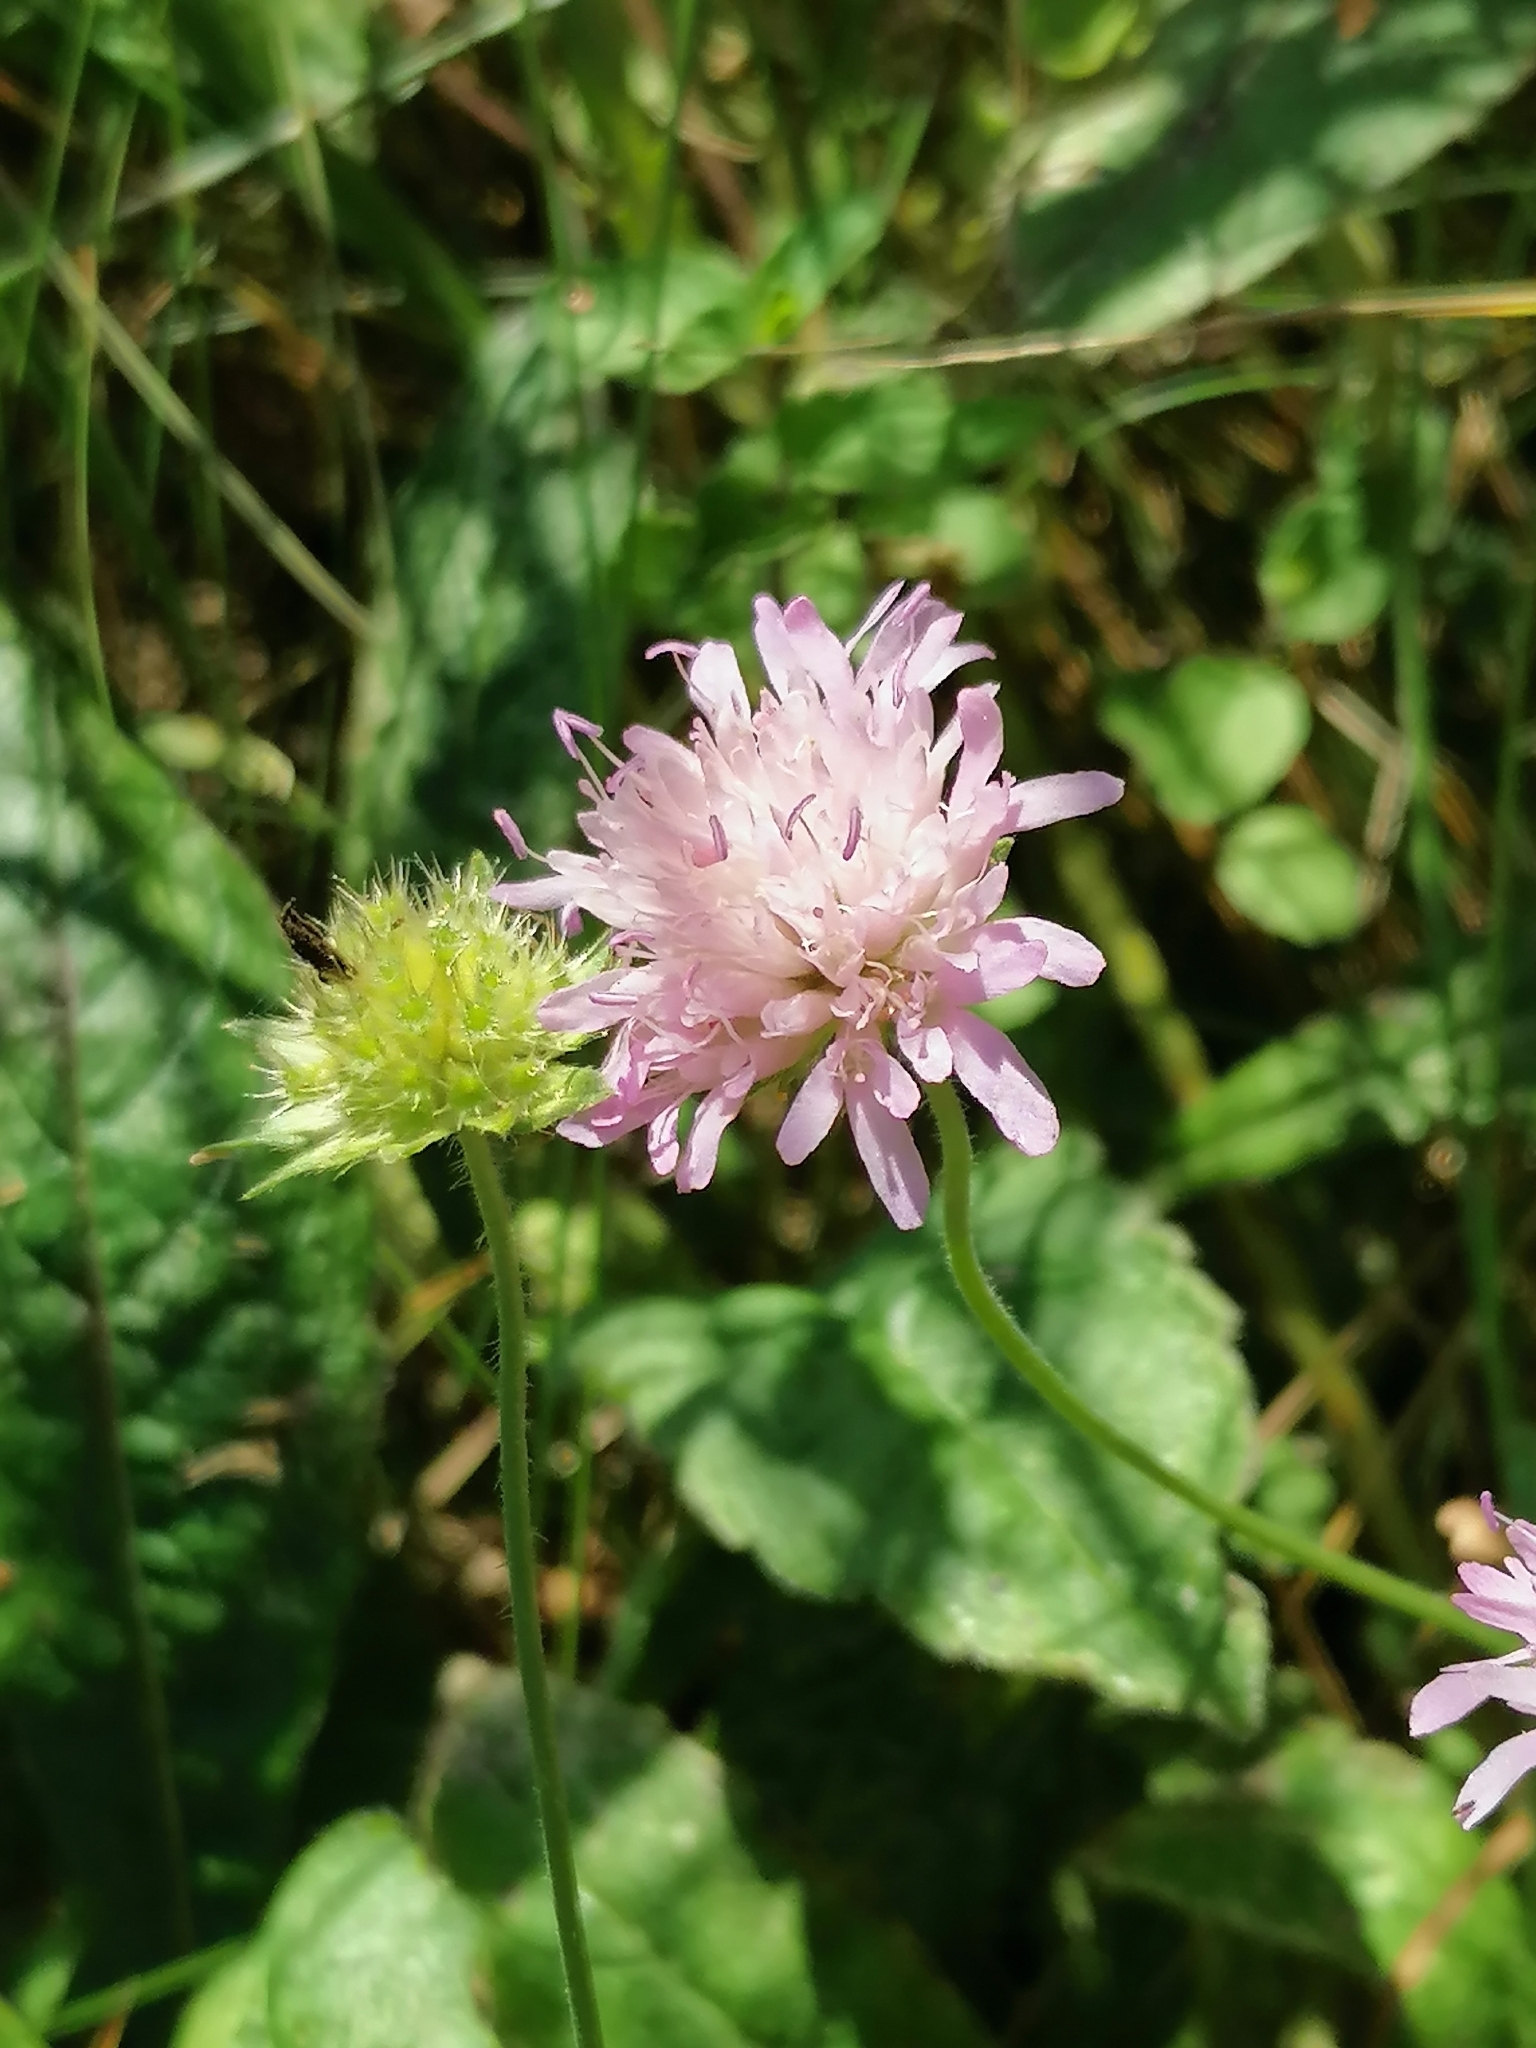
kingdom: Plantae
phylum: Tracheophyta
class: Magnoliopsida
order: Dipsacales
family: Caprifoliaceae
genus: Knautia
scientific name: Knautia arvensis
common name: Field scabiosa
